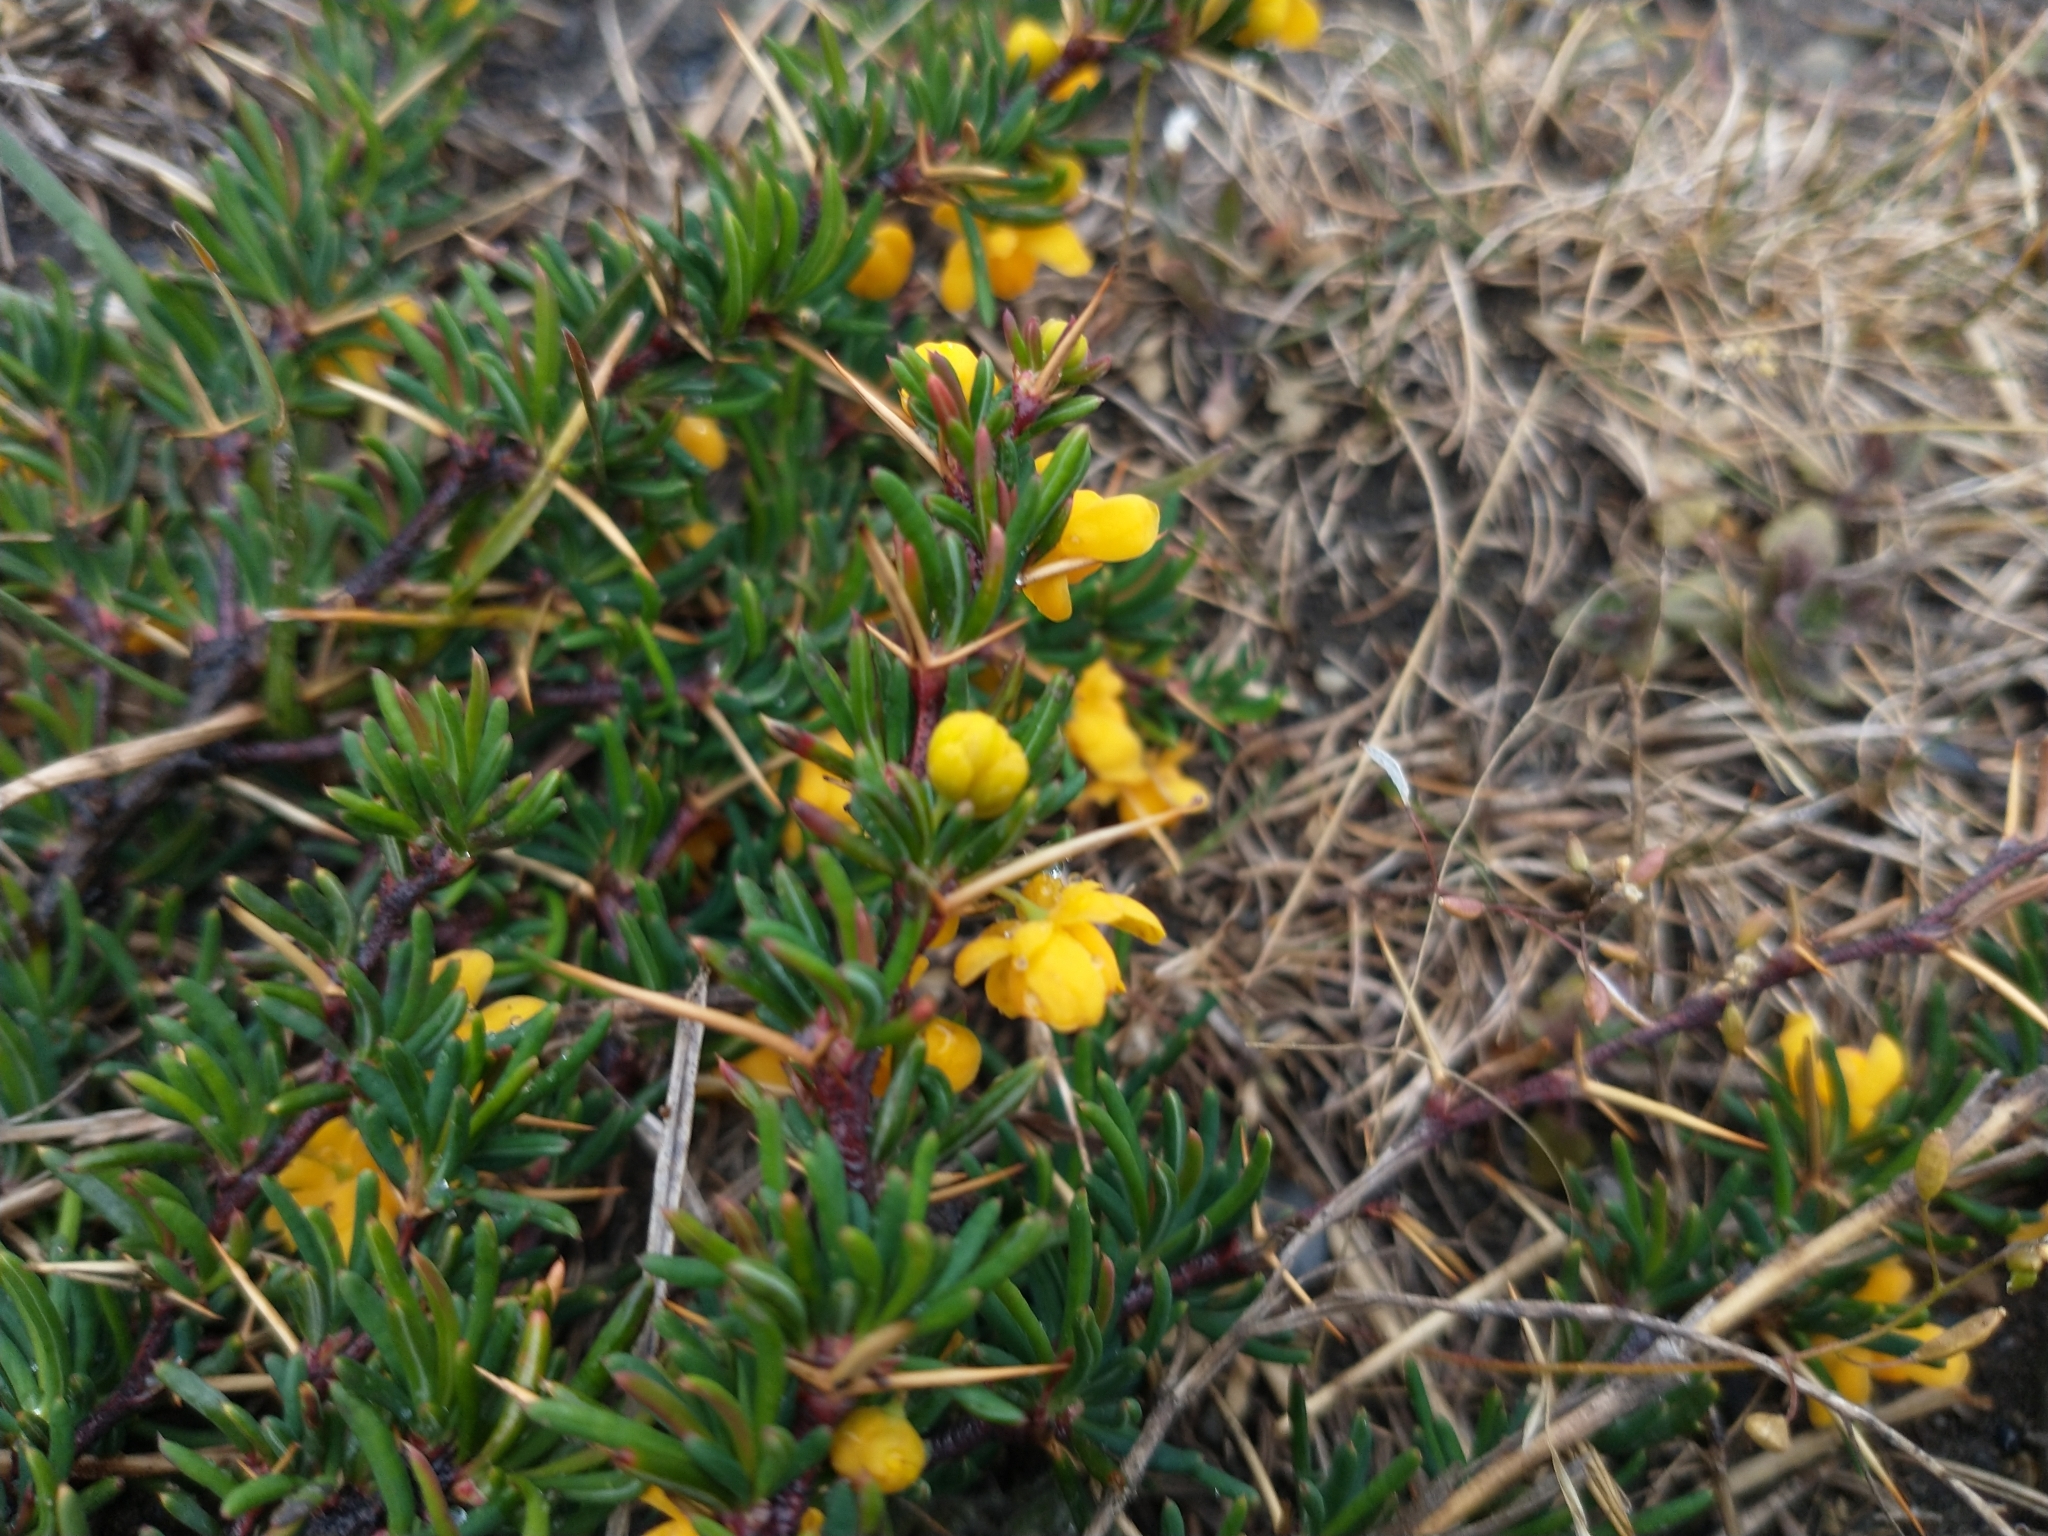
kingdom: Plantae
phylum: Tracheophyta
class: Magnoliopsida
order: Ranunculales
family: Berberidaceae
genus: Berberis
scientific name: Berberis empetrifolia
